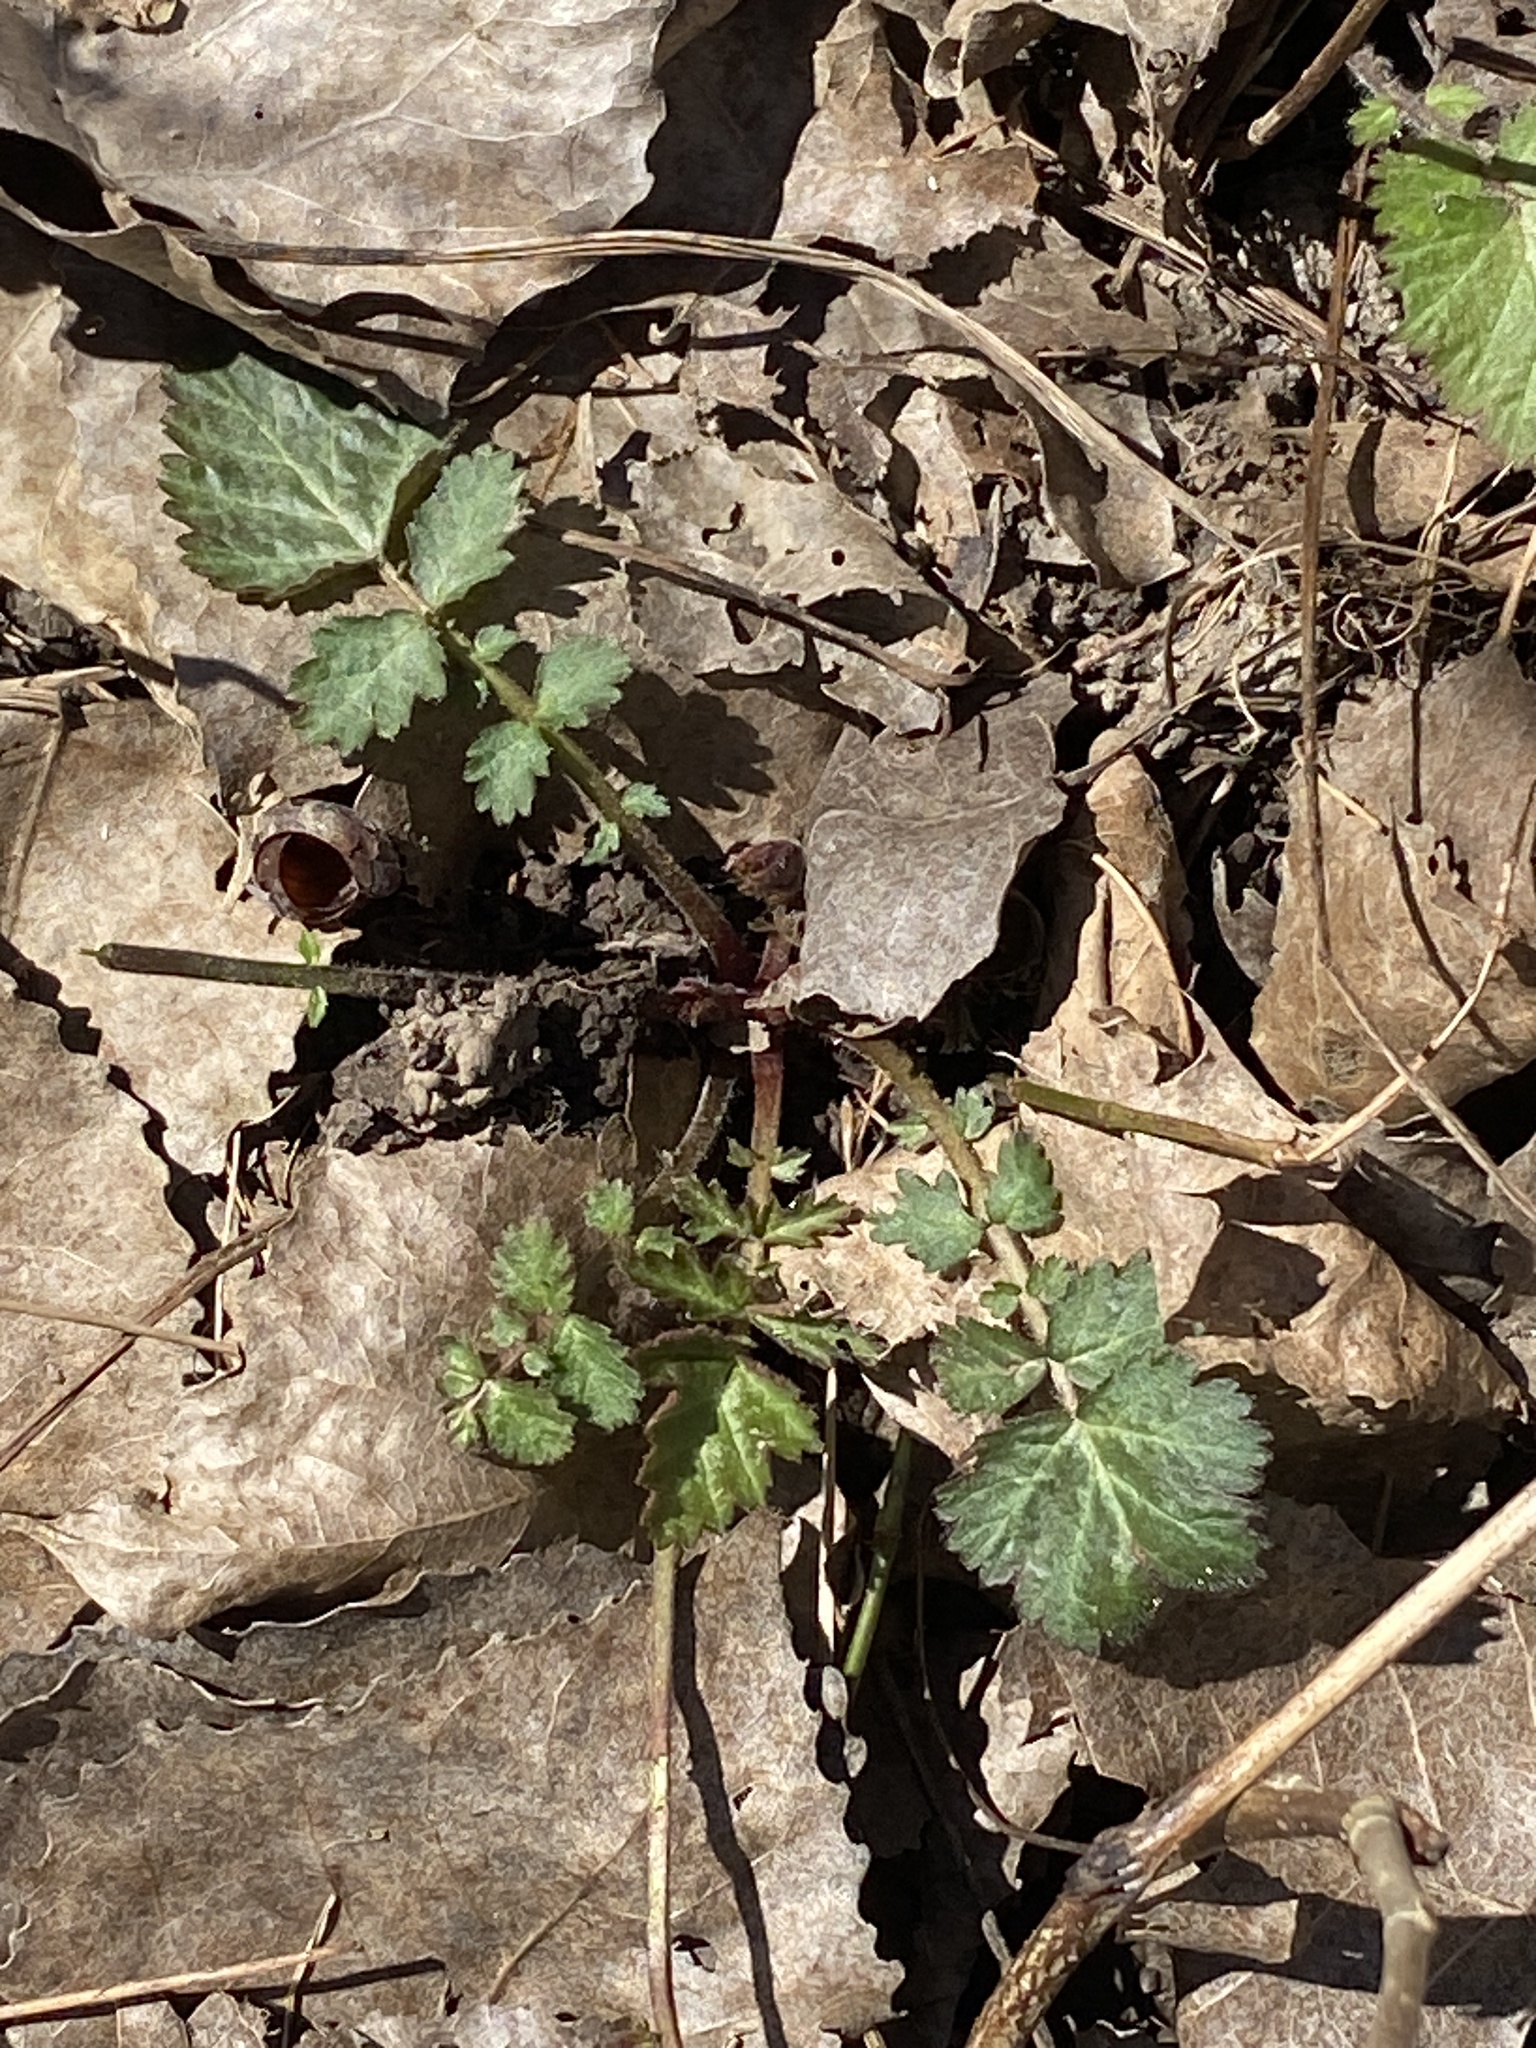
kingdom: Plantae
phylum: Tracheophyta
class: Magnoliopsida
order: Rosales
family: Rosaceae
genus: Geum
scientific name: Geum canadense
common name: White avens
